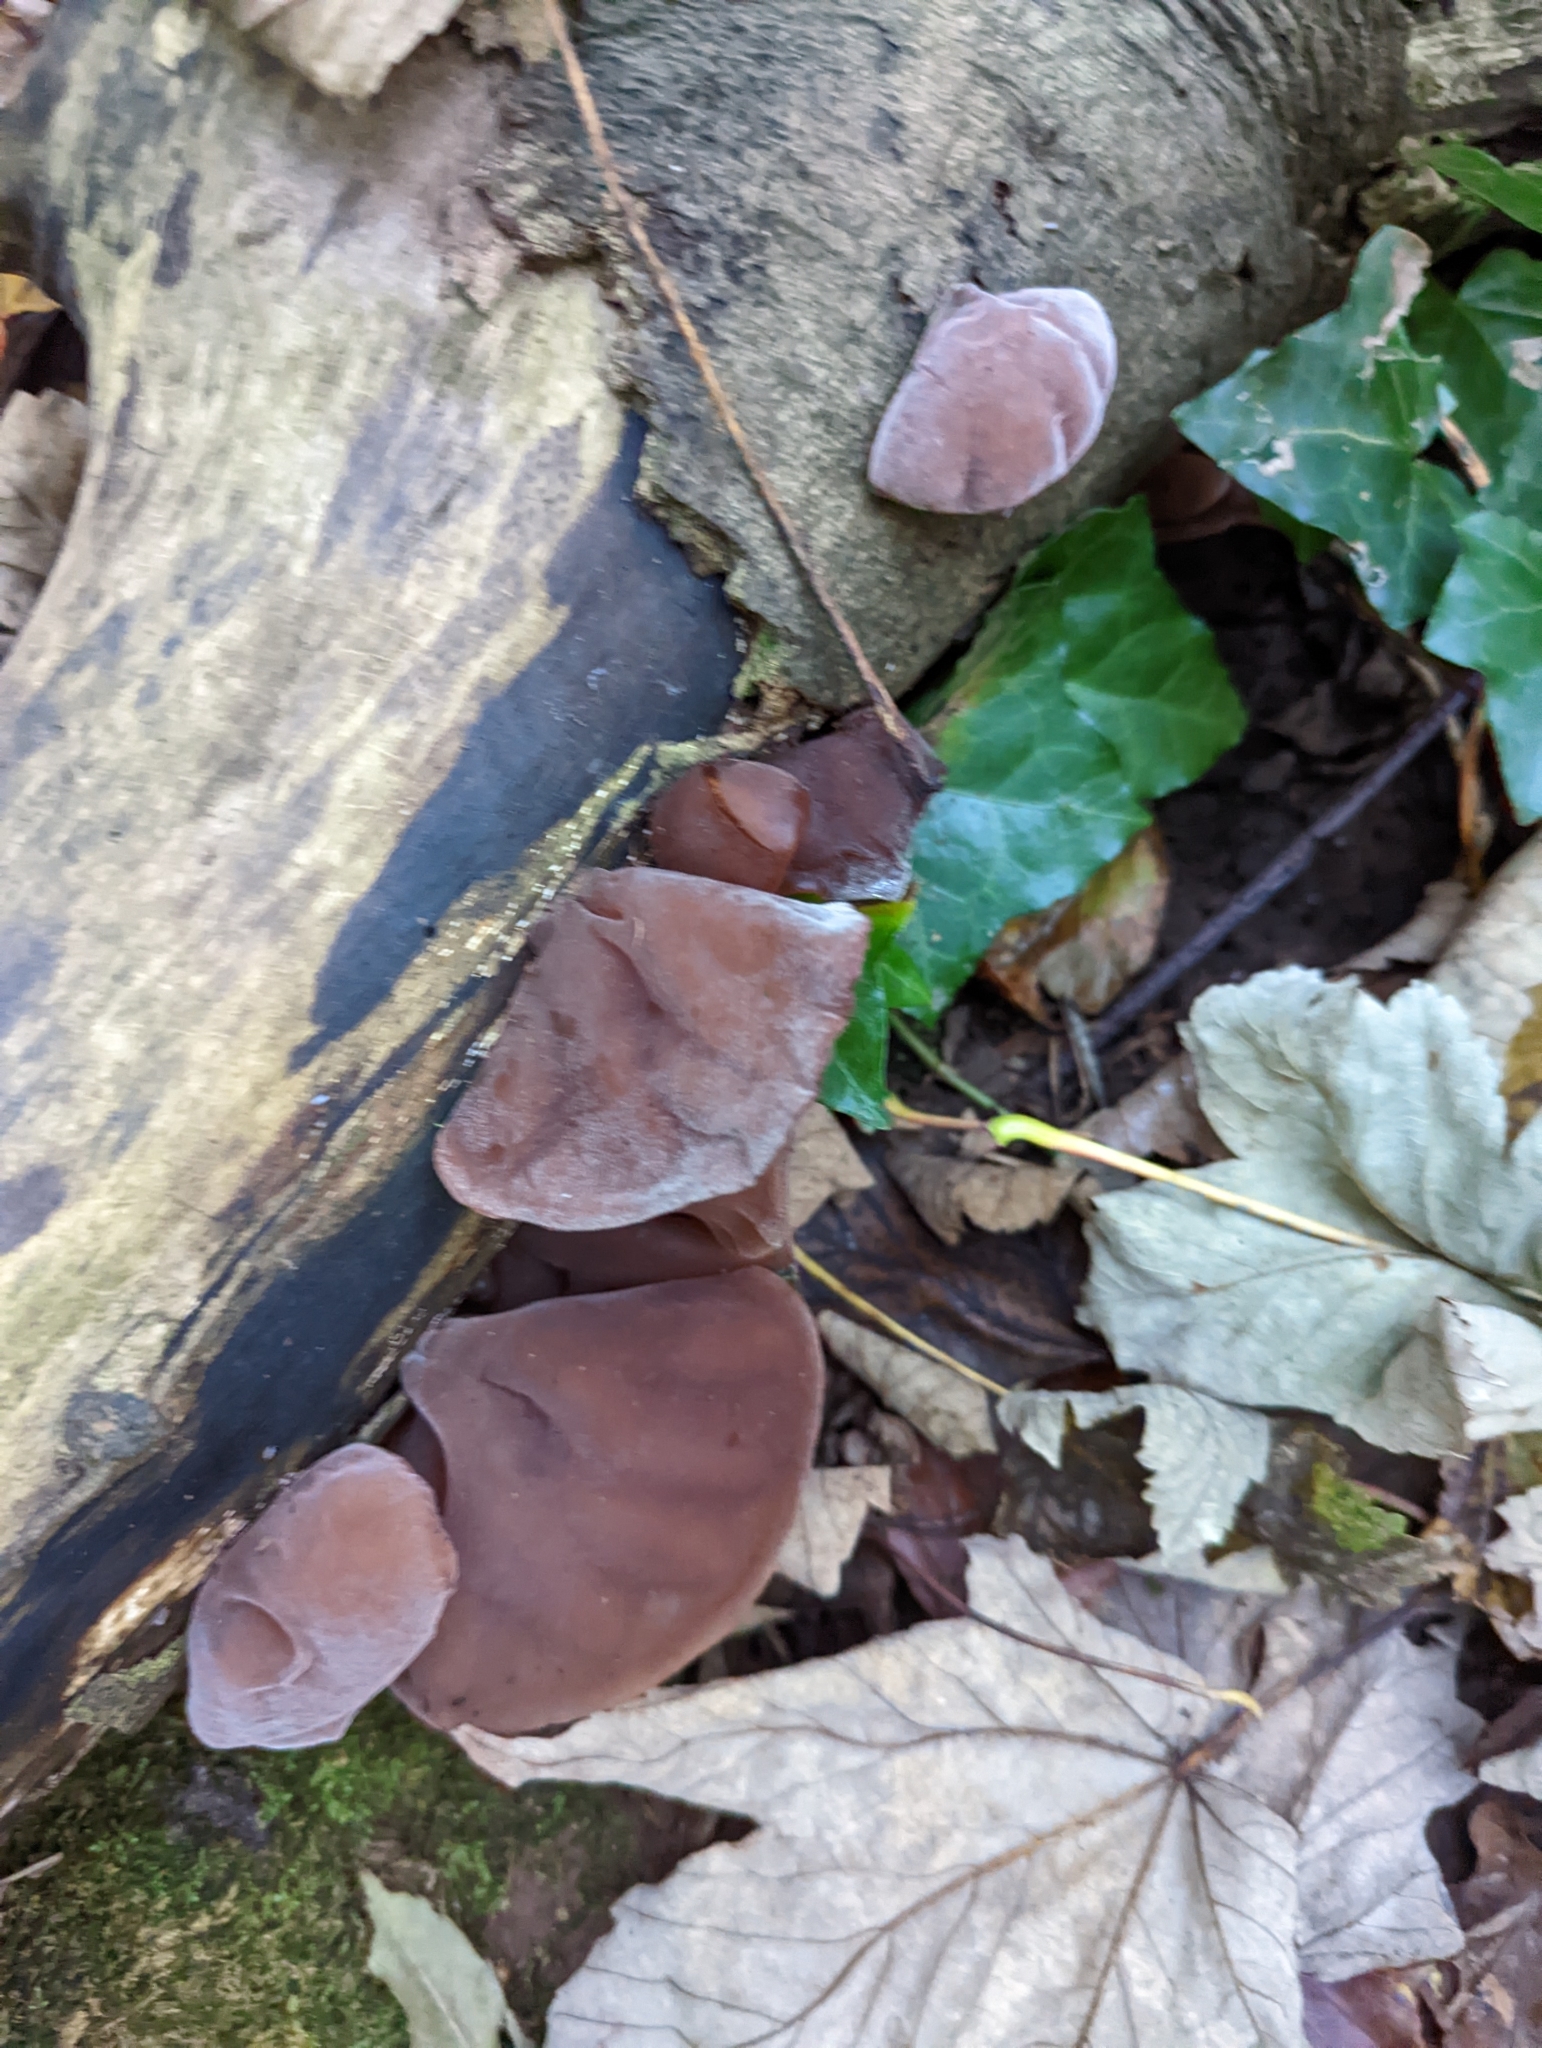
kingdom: Fungi
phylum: Basidiomycota
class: Agaricomycetes
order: Auriculariales
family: Auriculariaceae
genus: Auricularia
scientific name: Auricularia auricula-judae
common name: Jelly ear
